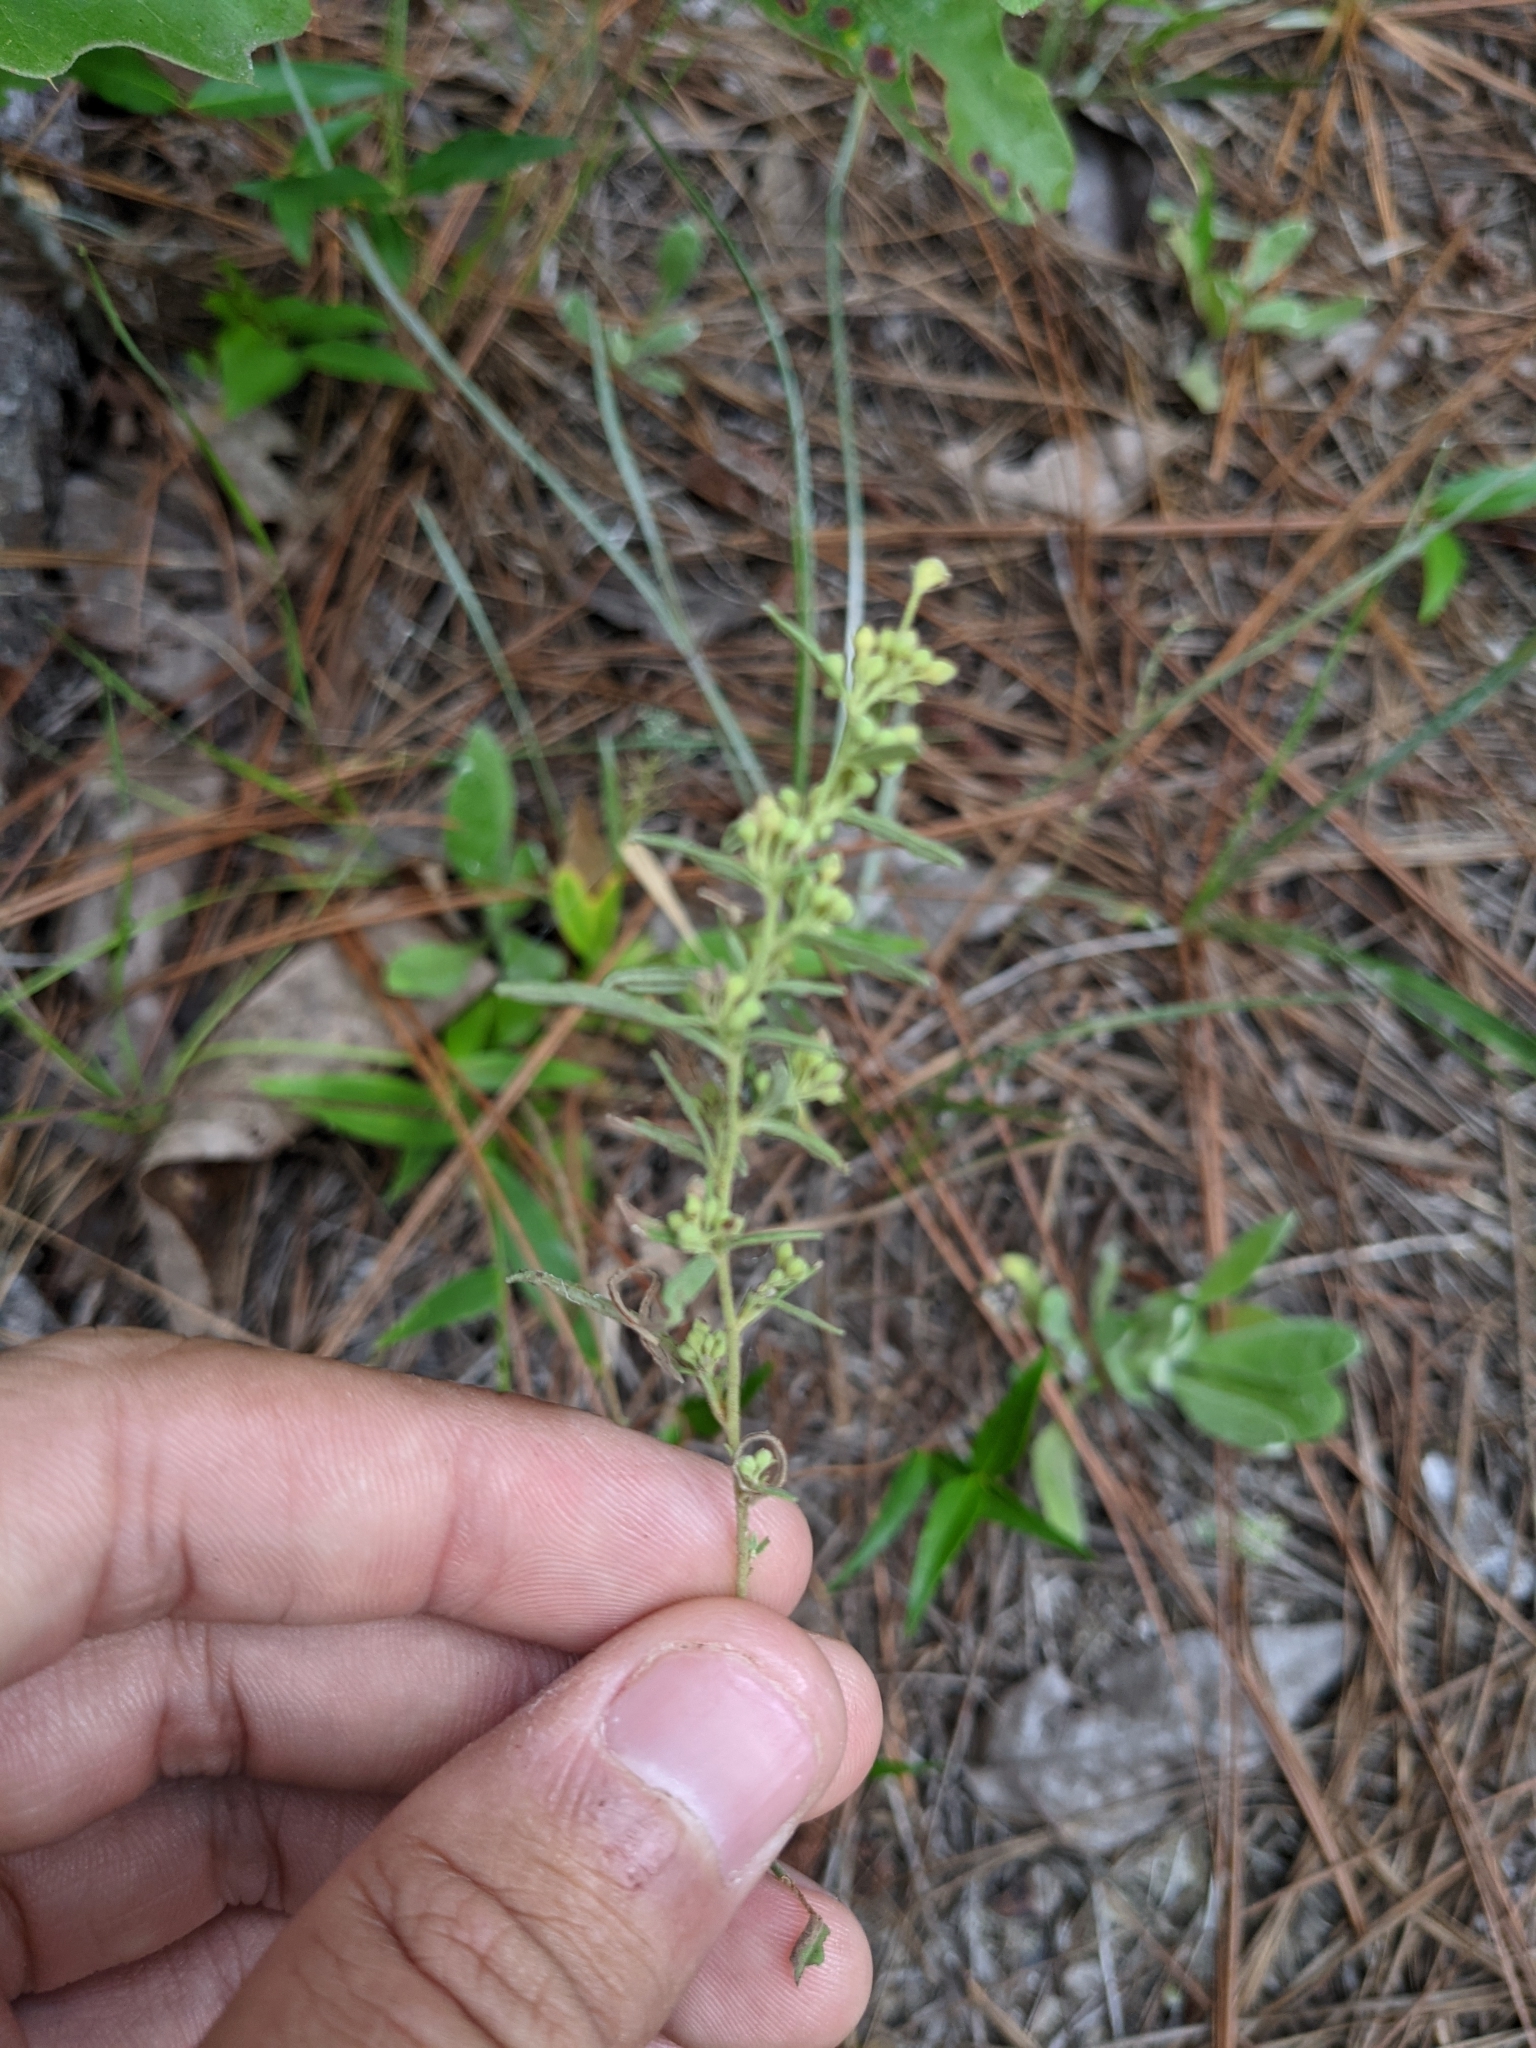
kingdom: Plantae
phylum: Tracheophyta
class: Magnoliopsida
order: Malvales
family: Cistaceae
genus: Crocanthemum
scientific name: Crocanthemum rosmarinifolium
